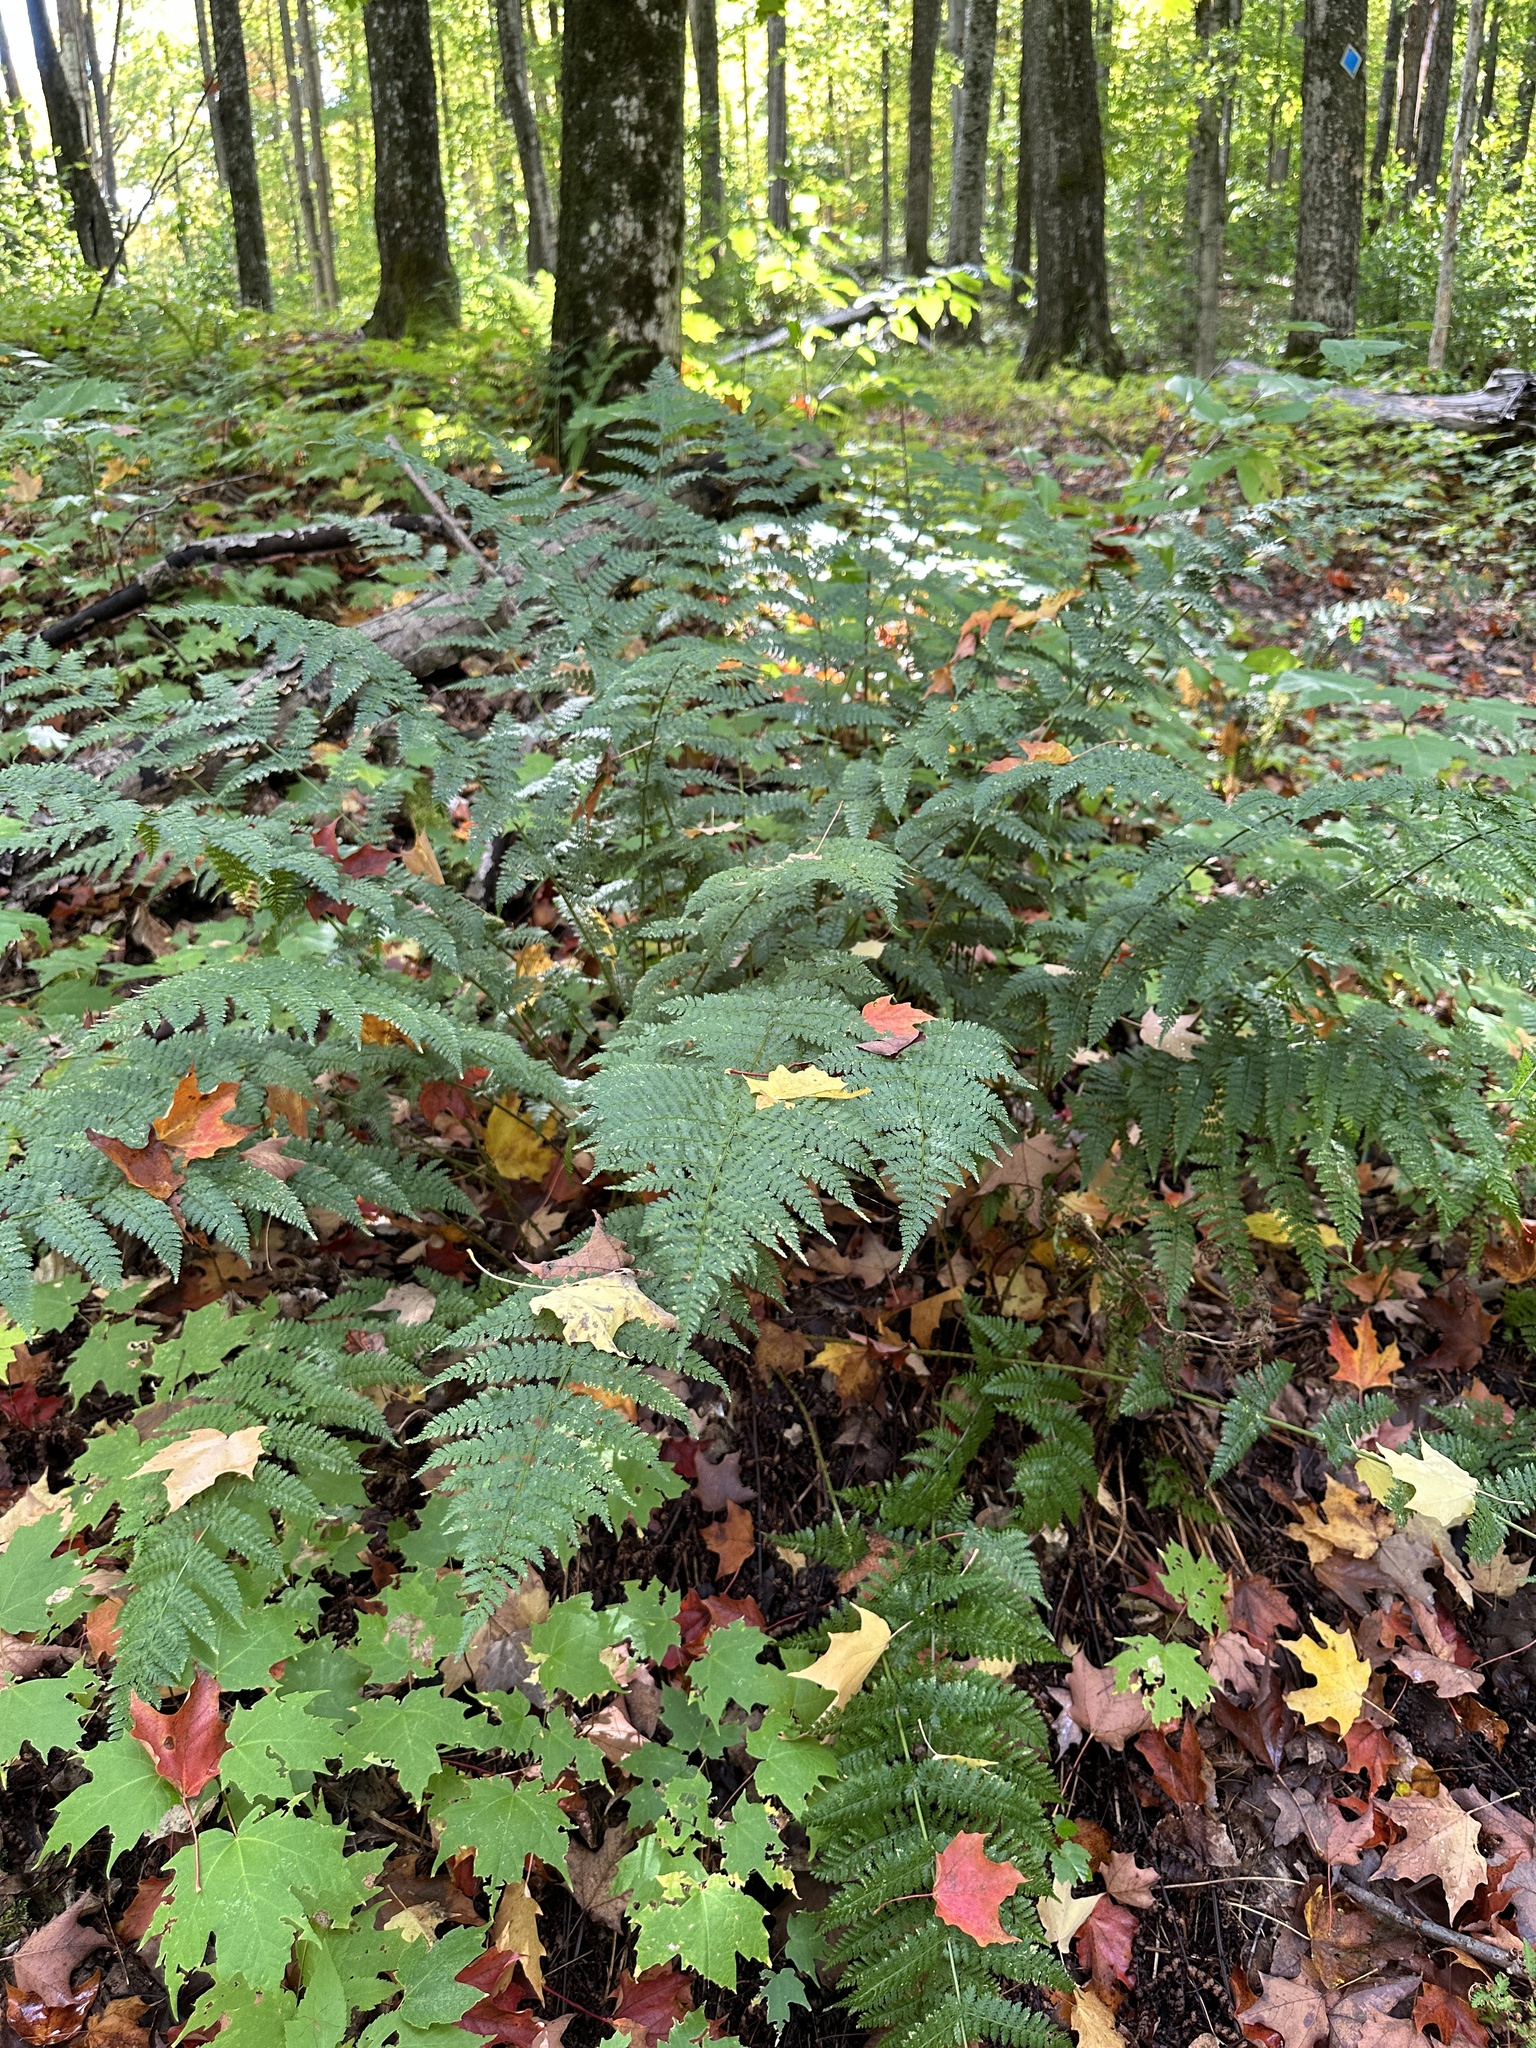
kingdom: Plantae
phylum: Tracheophyta
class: Polypodiopsida
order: Polypodiales
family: Dryopteridaceae
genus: Dryopteris
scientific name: Dryopteris intermedia
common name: Evergreen wood fern
